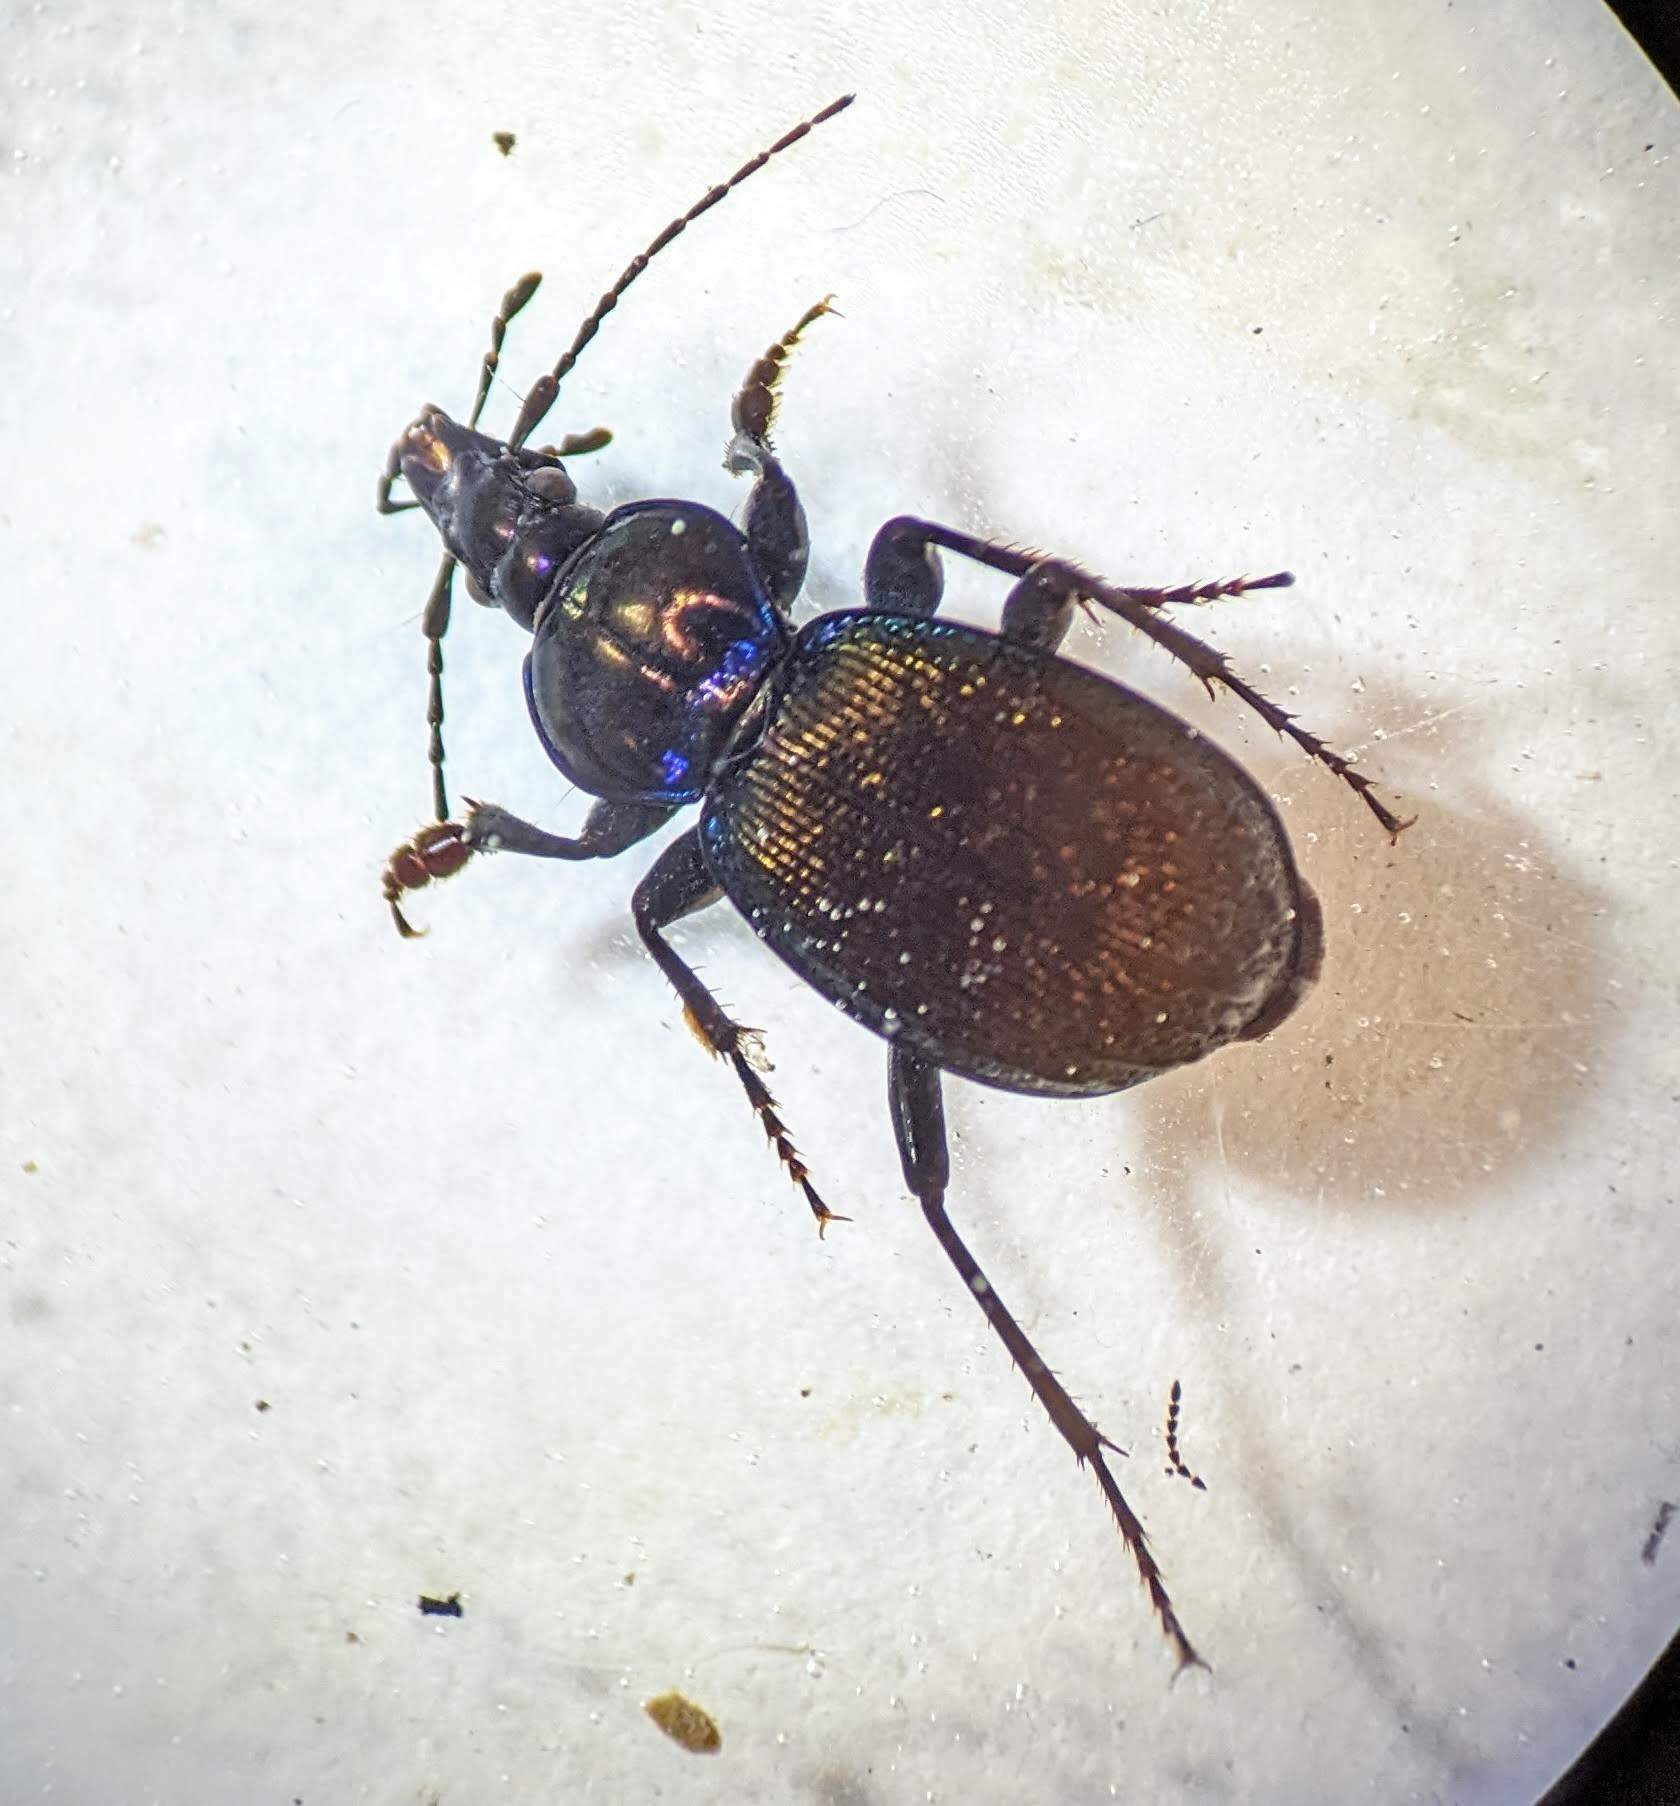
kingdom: Animalia
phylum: Arthropoda
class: Insecta
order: Coleoptera
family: Carabidae
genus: Sphaeroderus
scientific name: Sphaeroderus stenostomus
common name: Small snail-eating ground beetle
